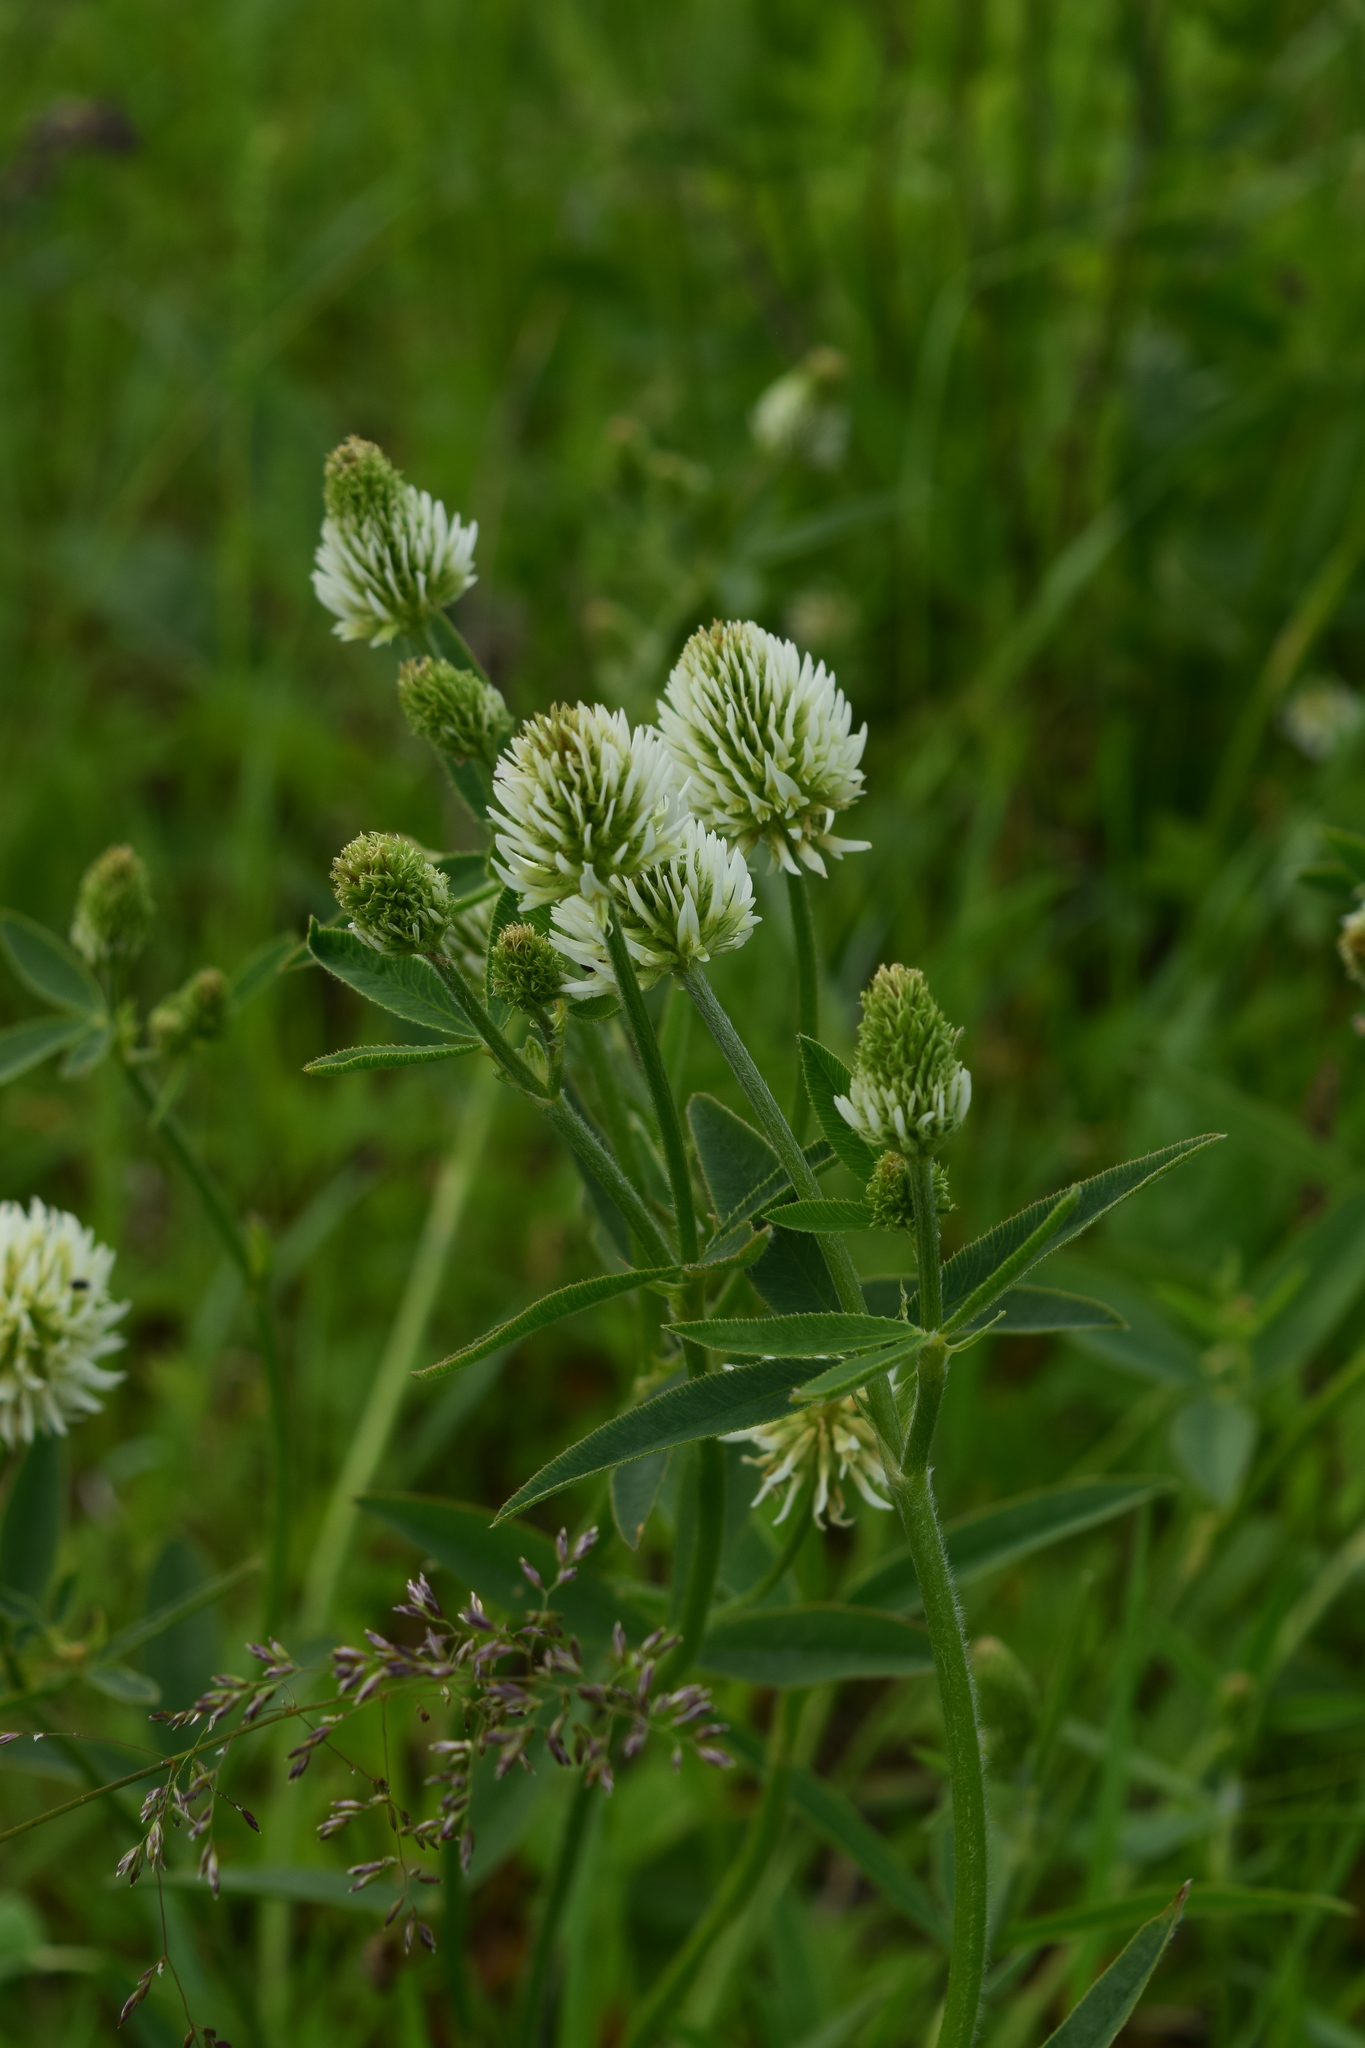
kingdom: Plantae
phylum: Tracheophyta
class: Magnoliopsida
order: Fabales
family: Fabaceae
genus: Trifolium
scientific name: Trifolium montanum
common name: Mountain clover
